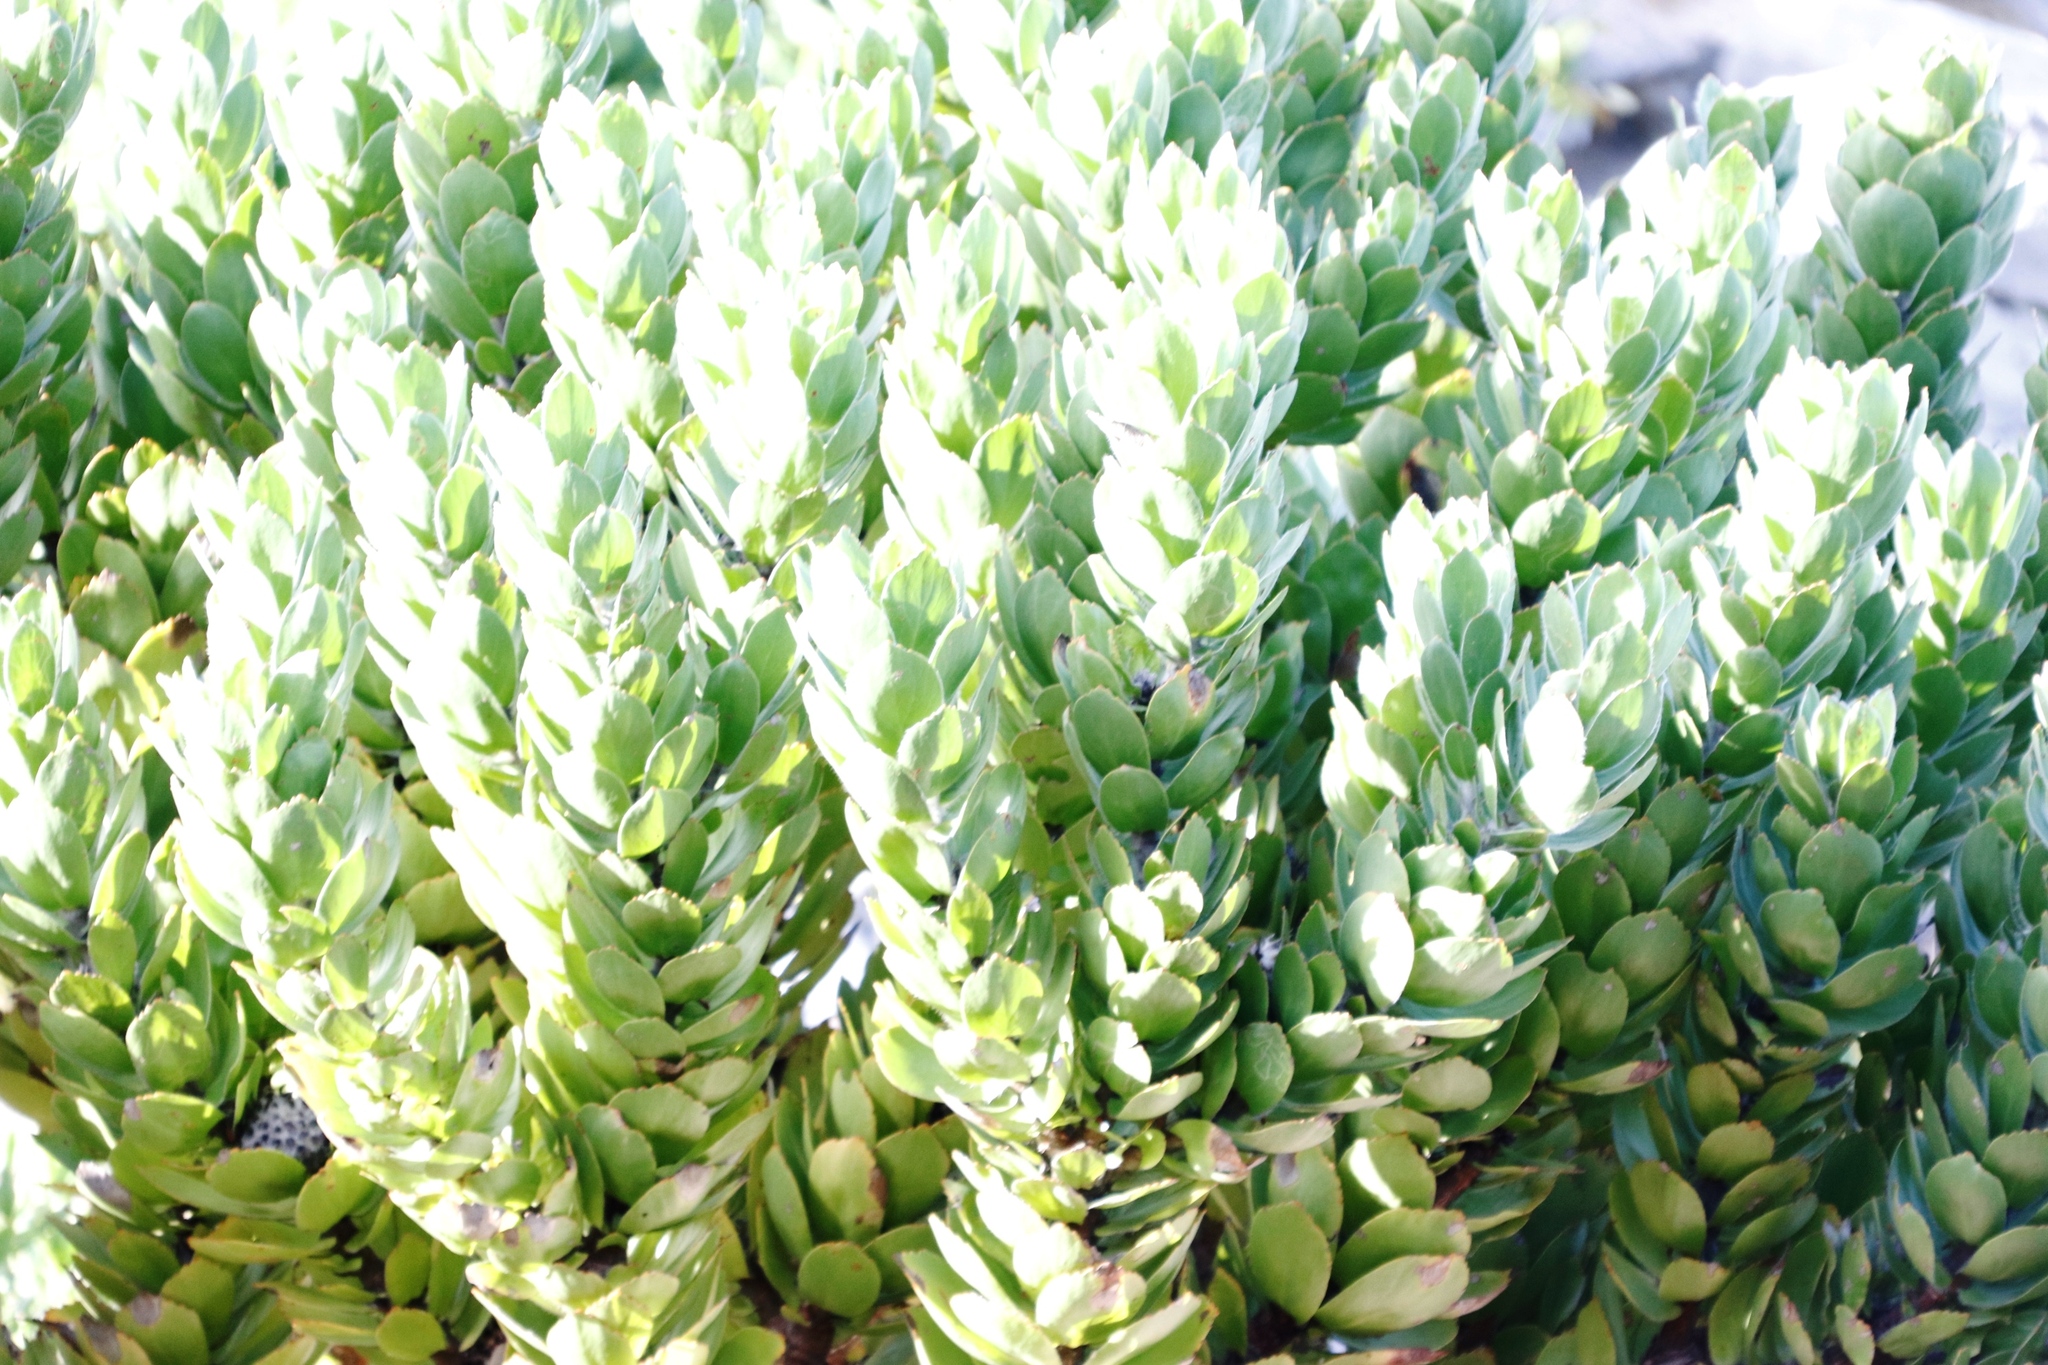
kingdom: Plantae
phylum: Tracheophyta
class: Magnoliopsida
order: Proteales
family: Proteaceae
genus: Leucospermum
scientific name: Leucospermum conocarpodendron
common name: Tree pincushion
